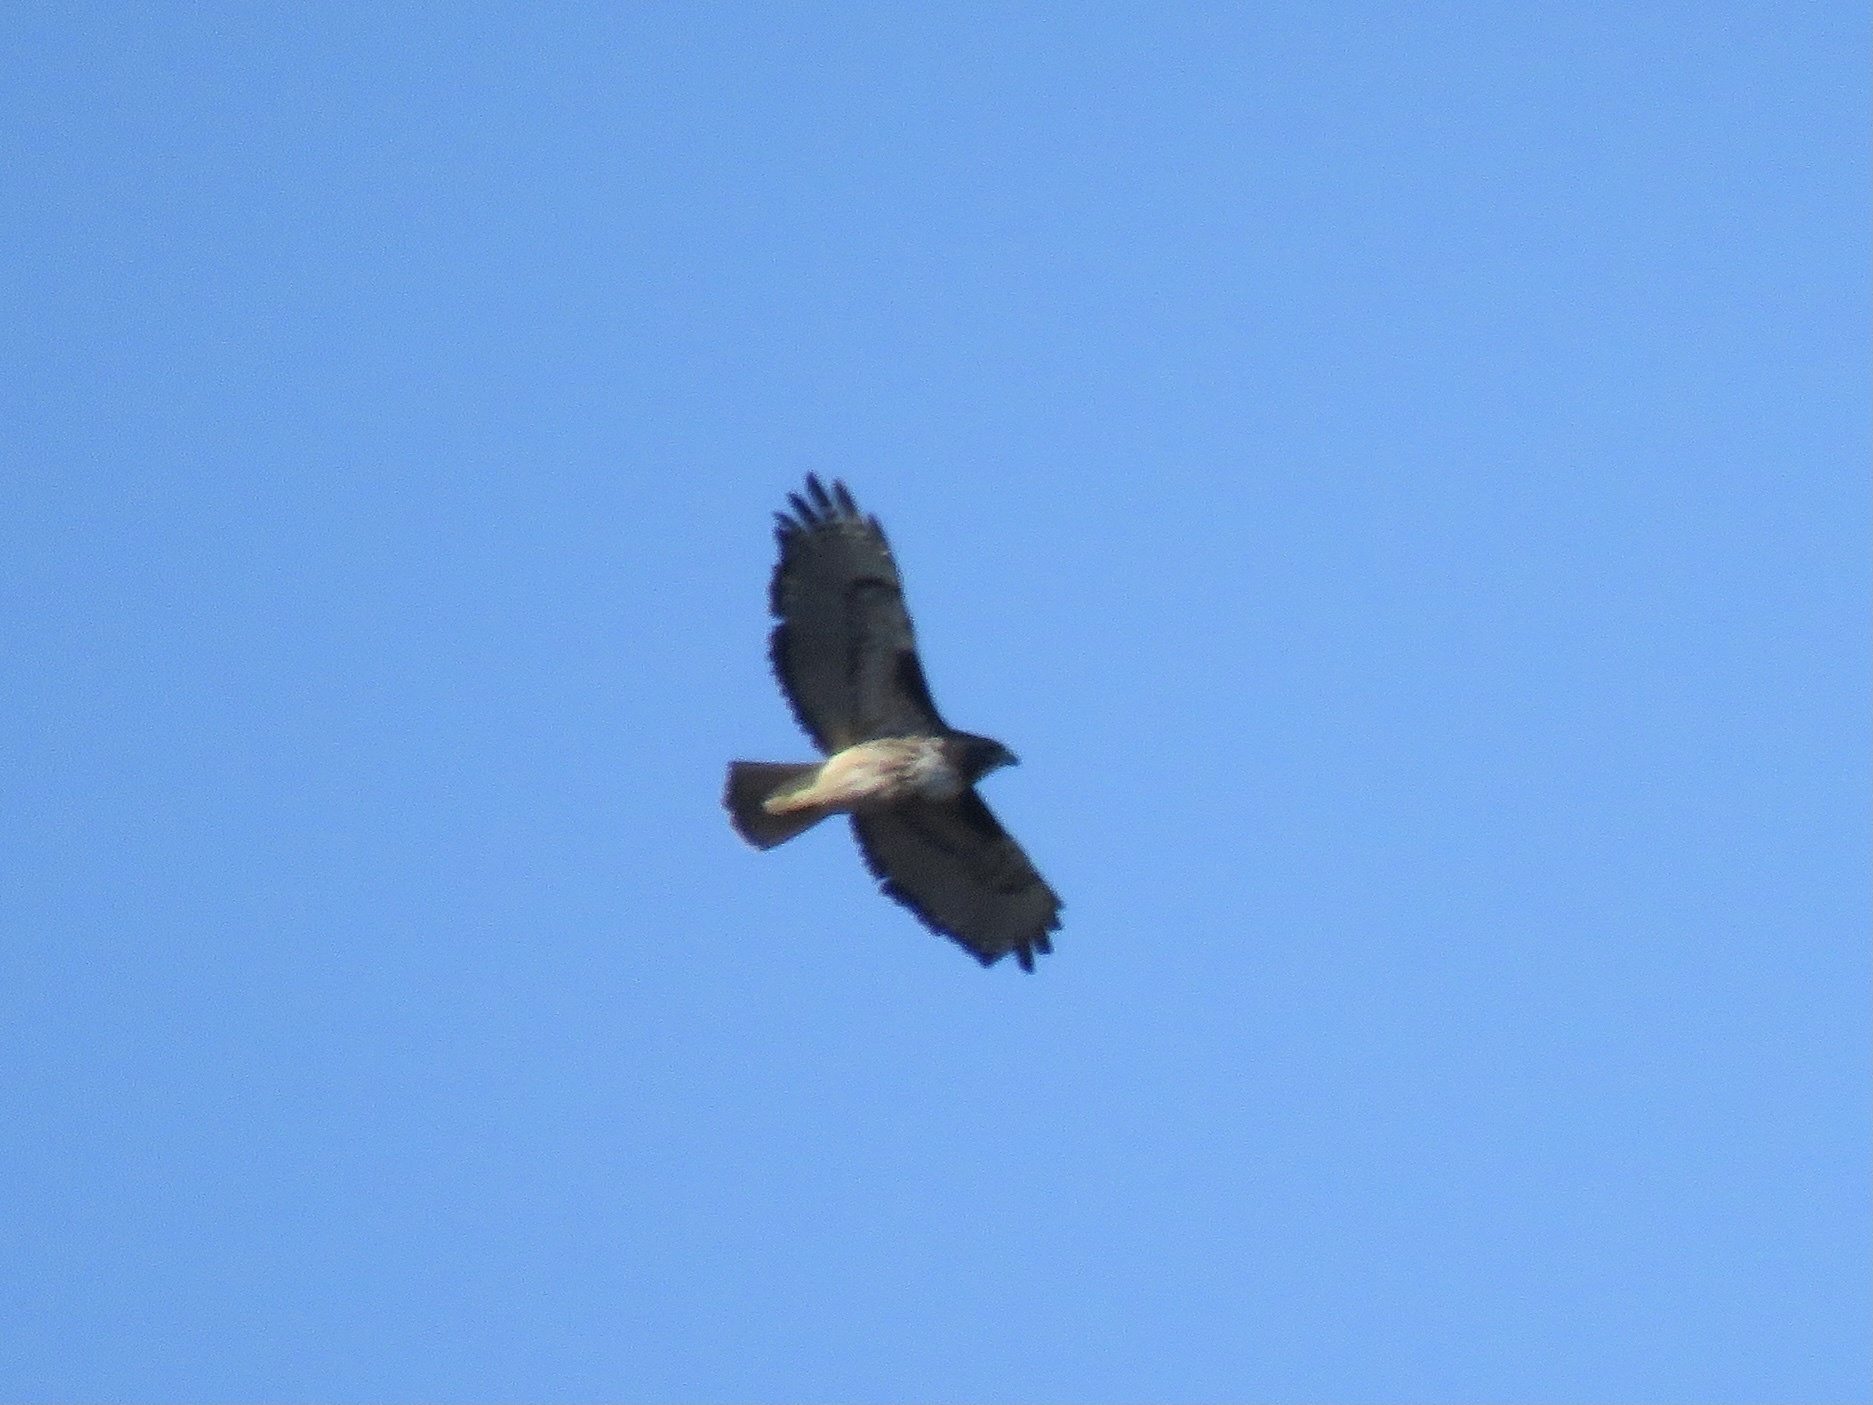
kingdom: Animalia
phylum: Chordata
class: Aves
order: Accipitriformes
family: Accipitridae
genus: Buteo
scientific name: Buteo jamaicensis
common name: Red-tailed hawk
